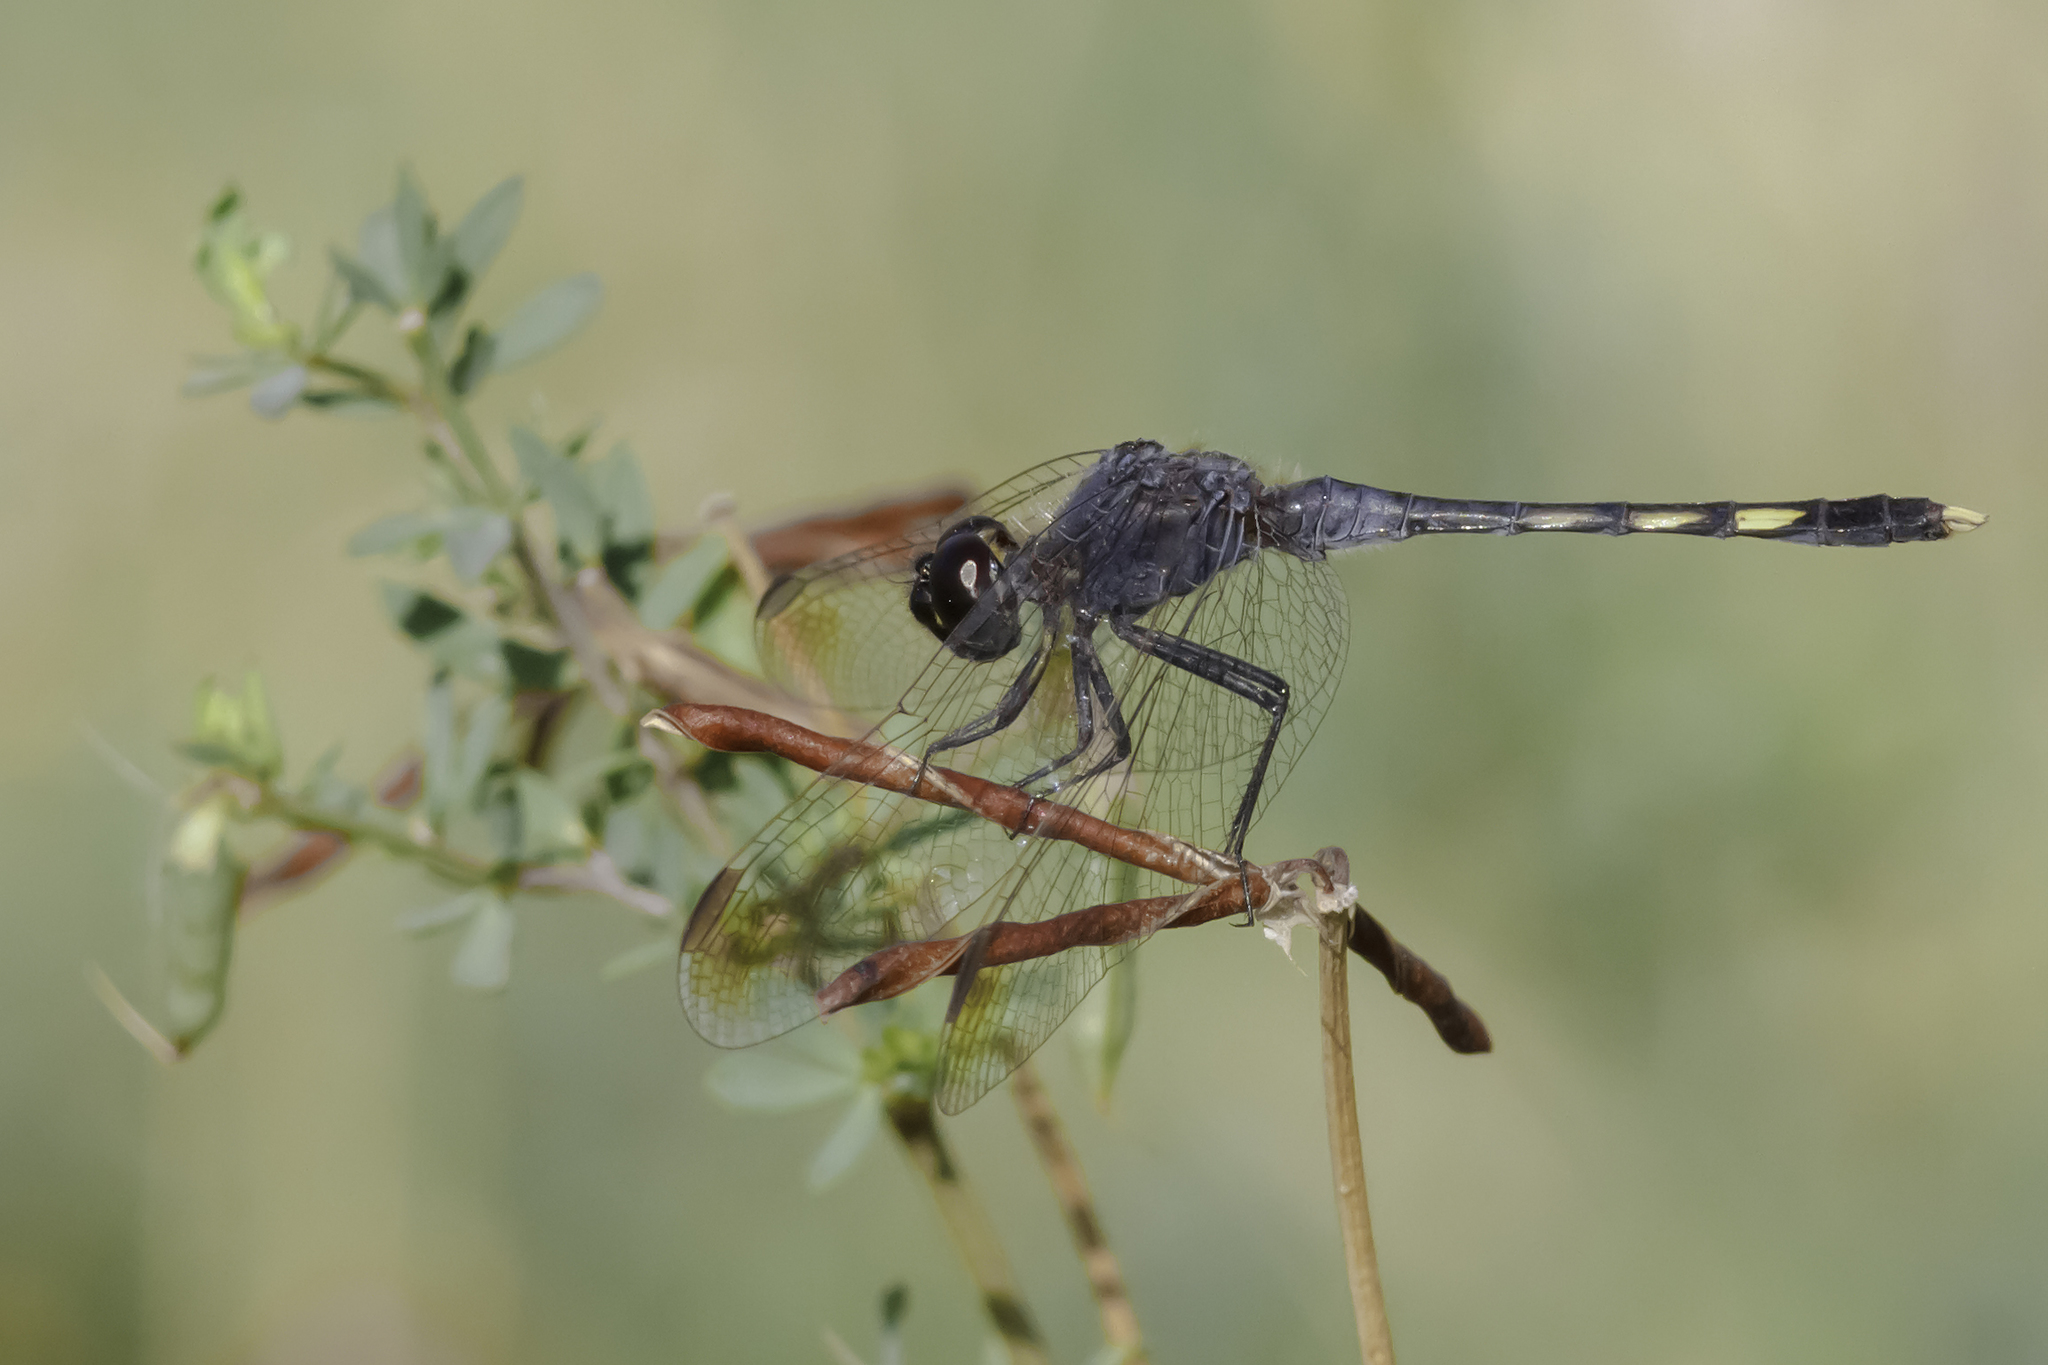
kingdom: Animalia
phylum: Arthropoda
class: Insecta
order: Odonata
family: Libellulidae
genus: Erythrodiplax
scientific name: Erythrodiplax nigricans
